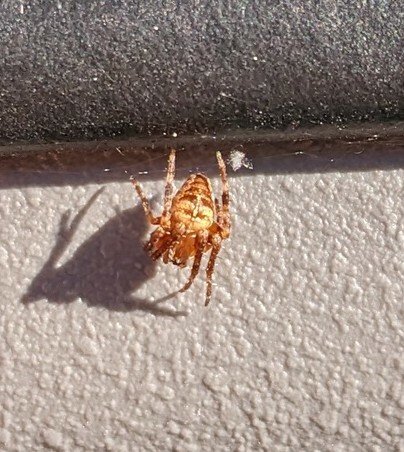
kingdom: Animalia
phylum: Arthropoda
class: Arachnida
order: Araneae
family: Araneidae
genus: Araneus
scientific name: Araneus diadematus
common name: Cross orbweaver
